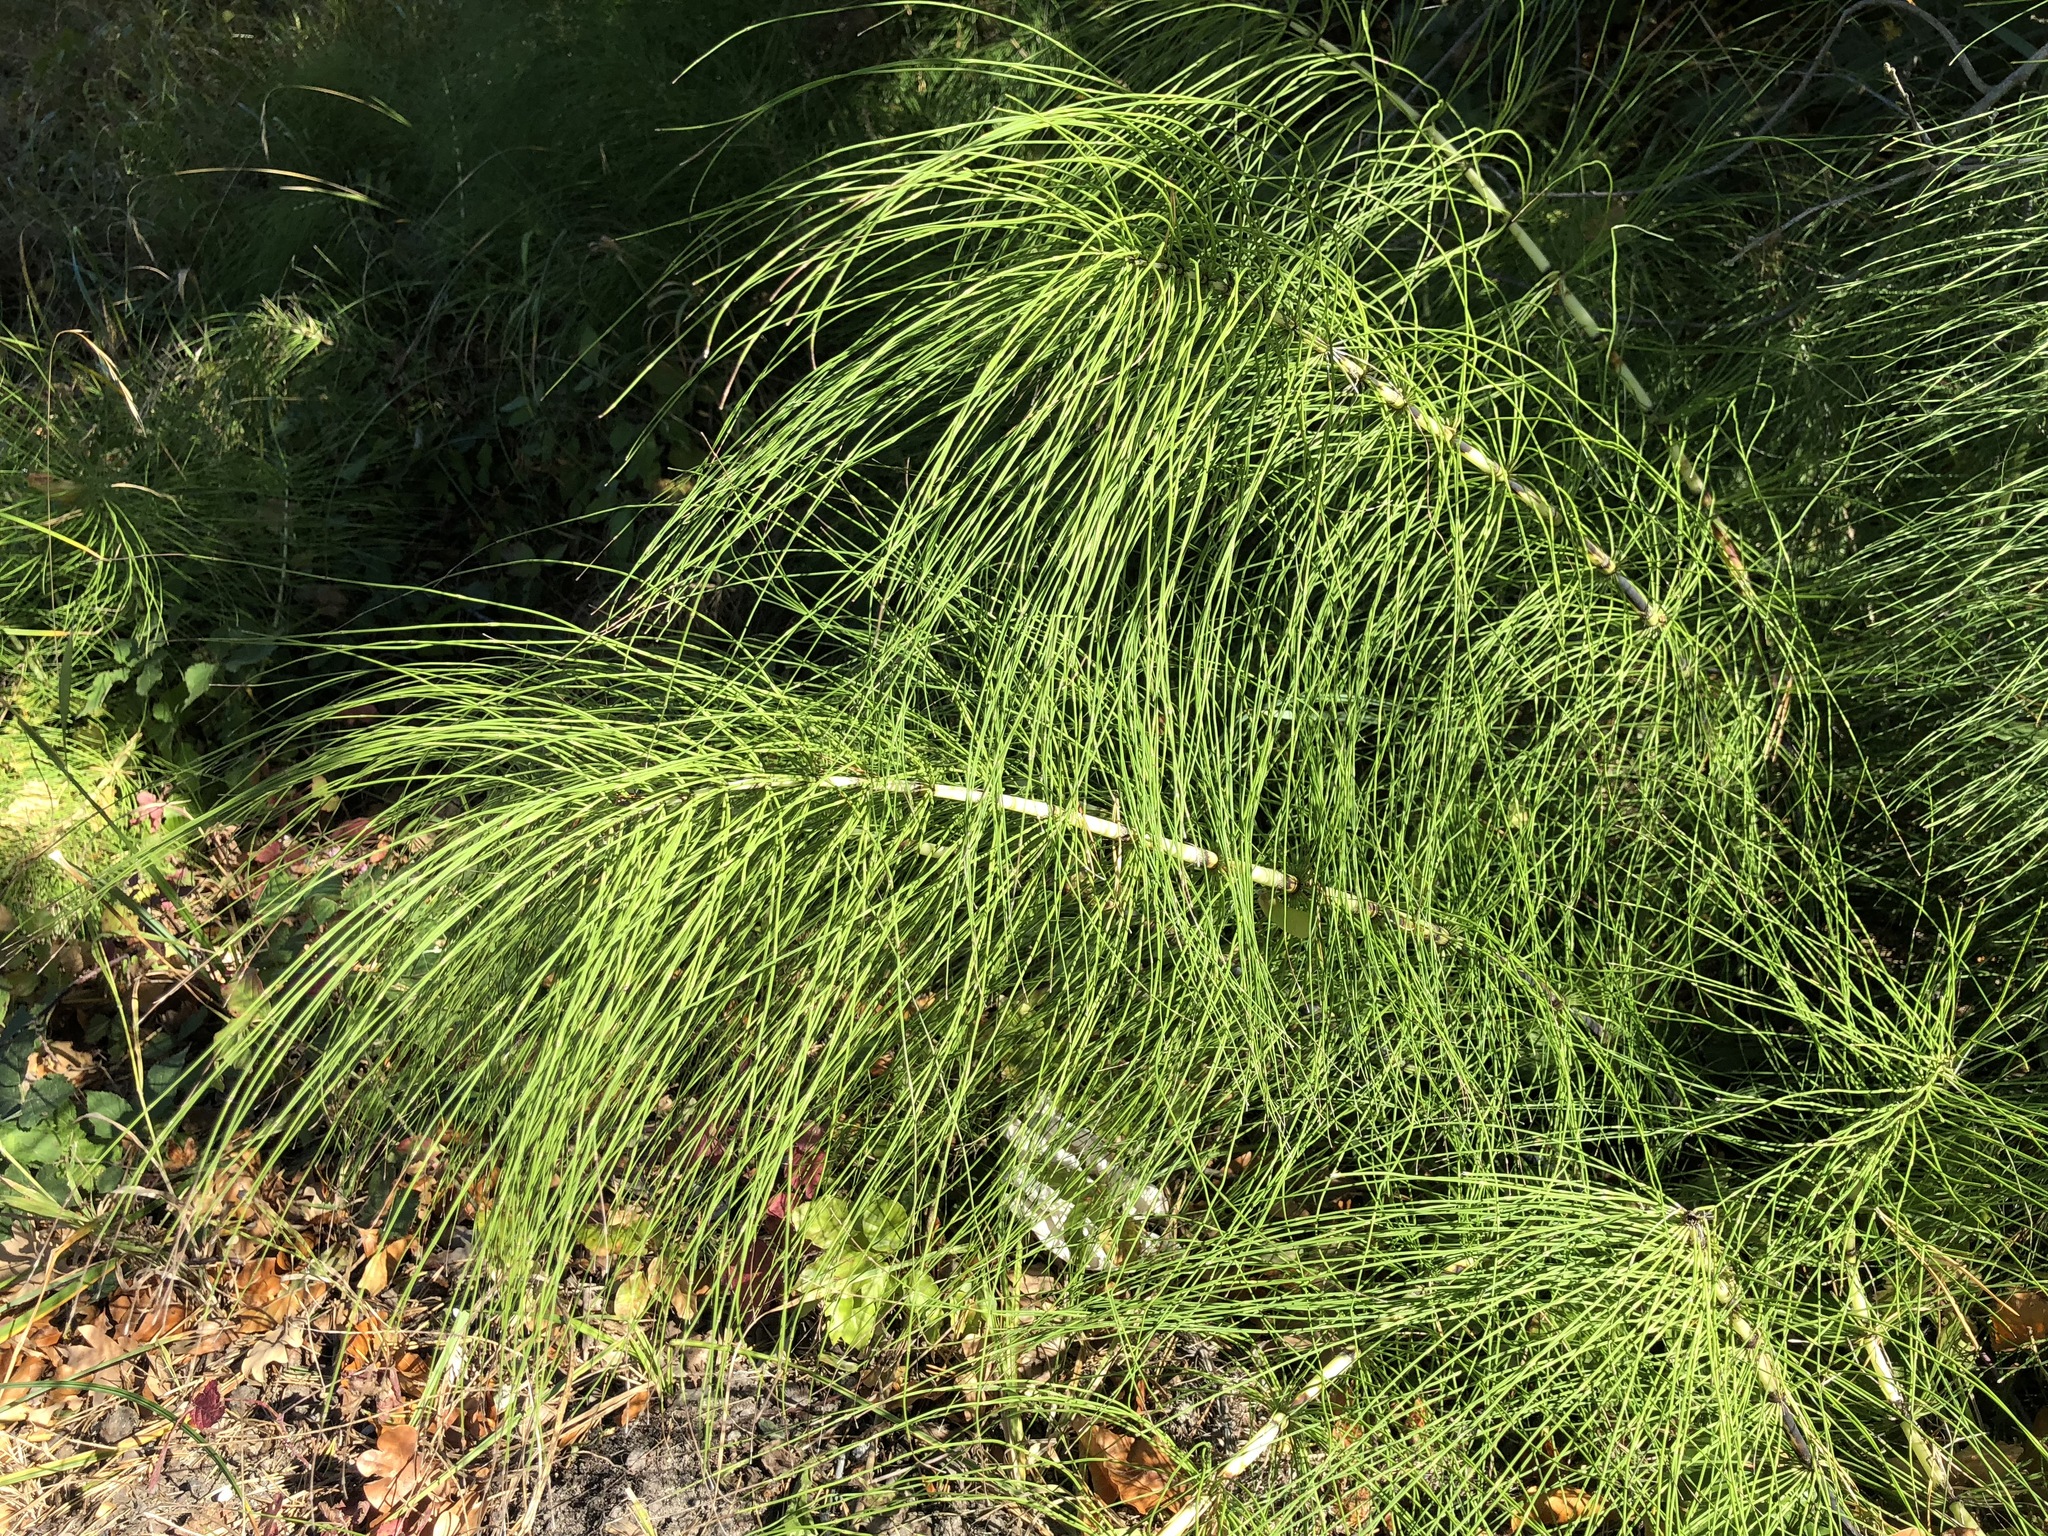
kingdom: Plantae
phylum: Tracheophyta
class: Polypodiopsida
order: Equisetales
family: Equisetaceae
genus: Equisetum
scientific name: Equisetum telmateia
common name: Great horsetail
